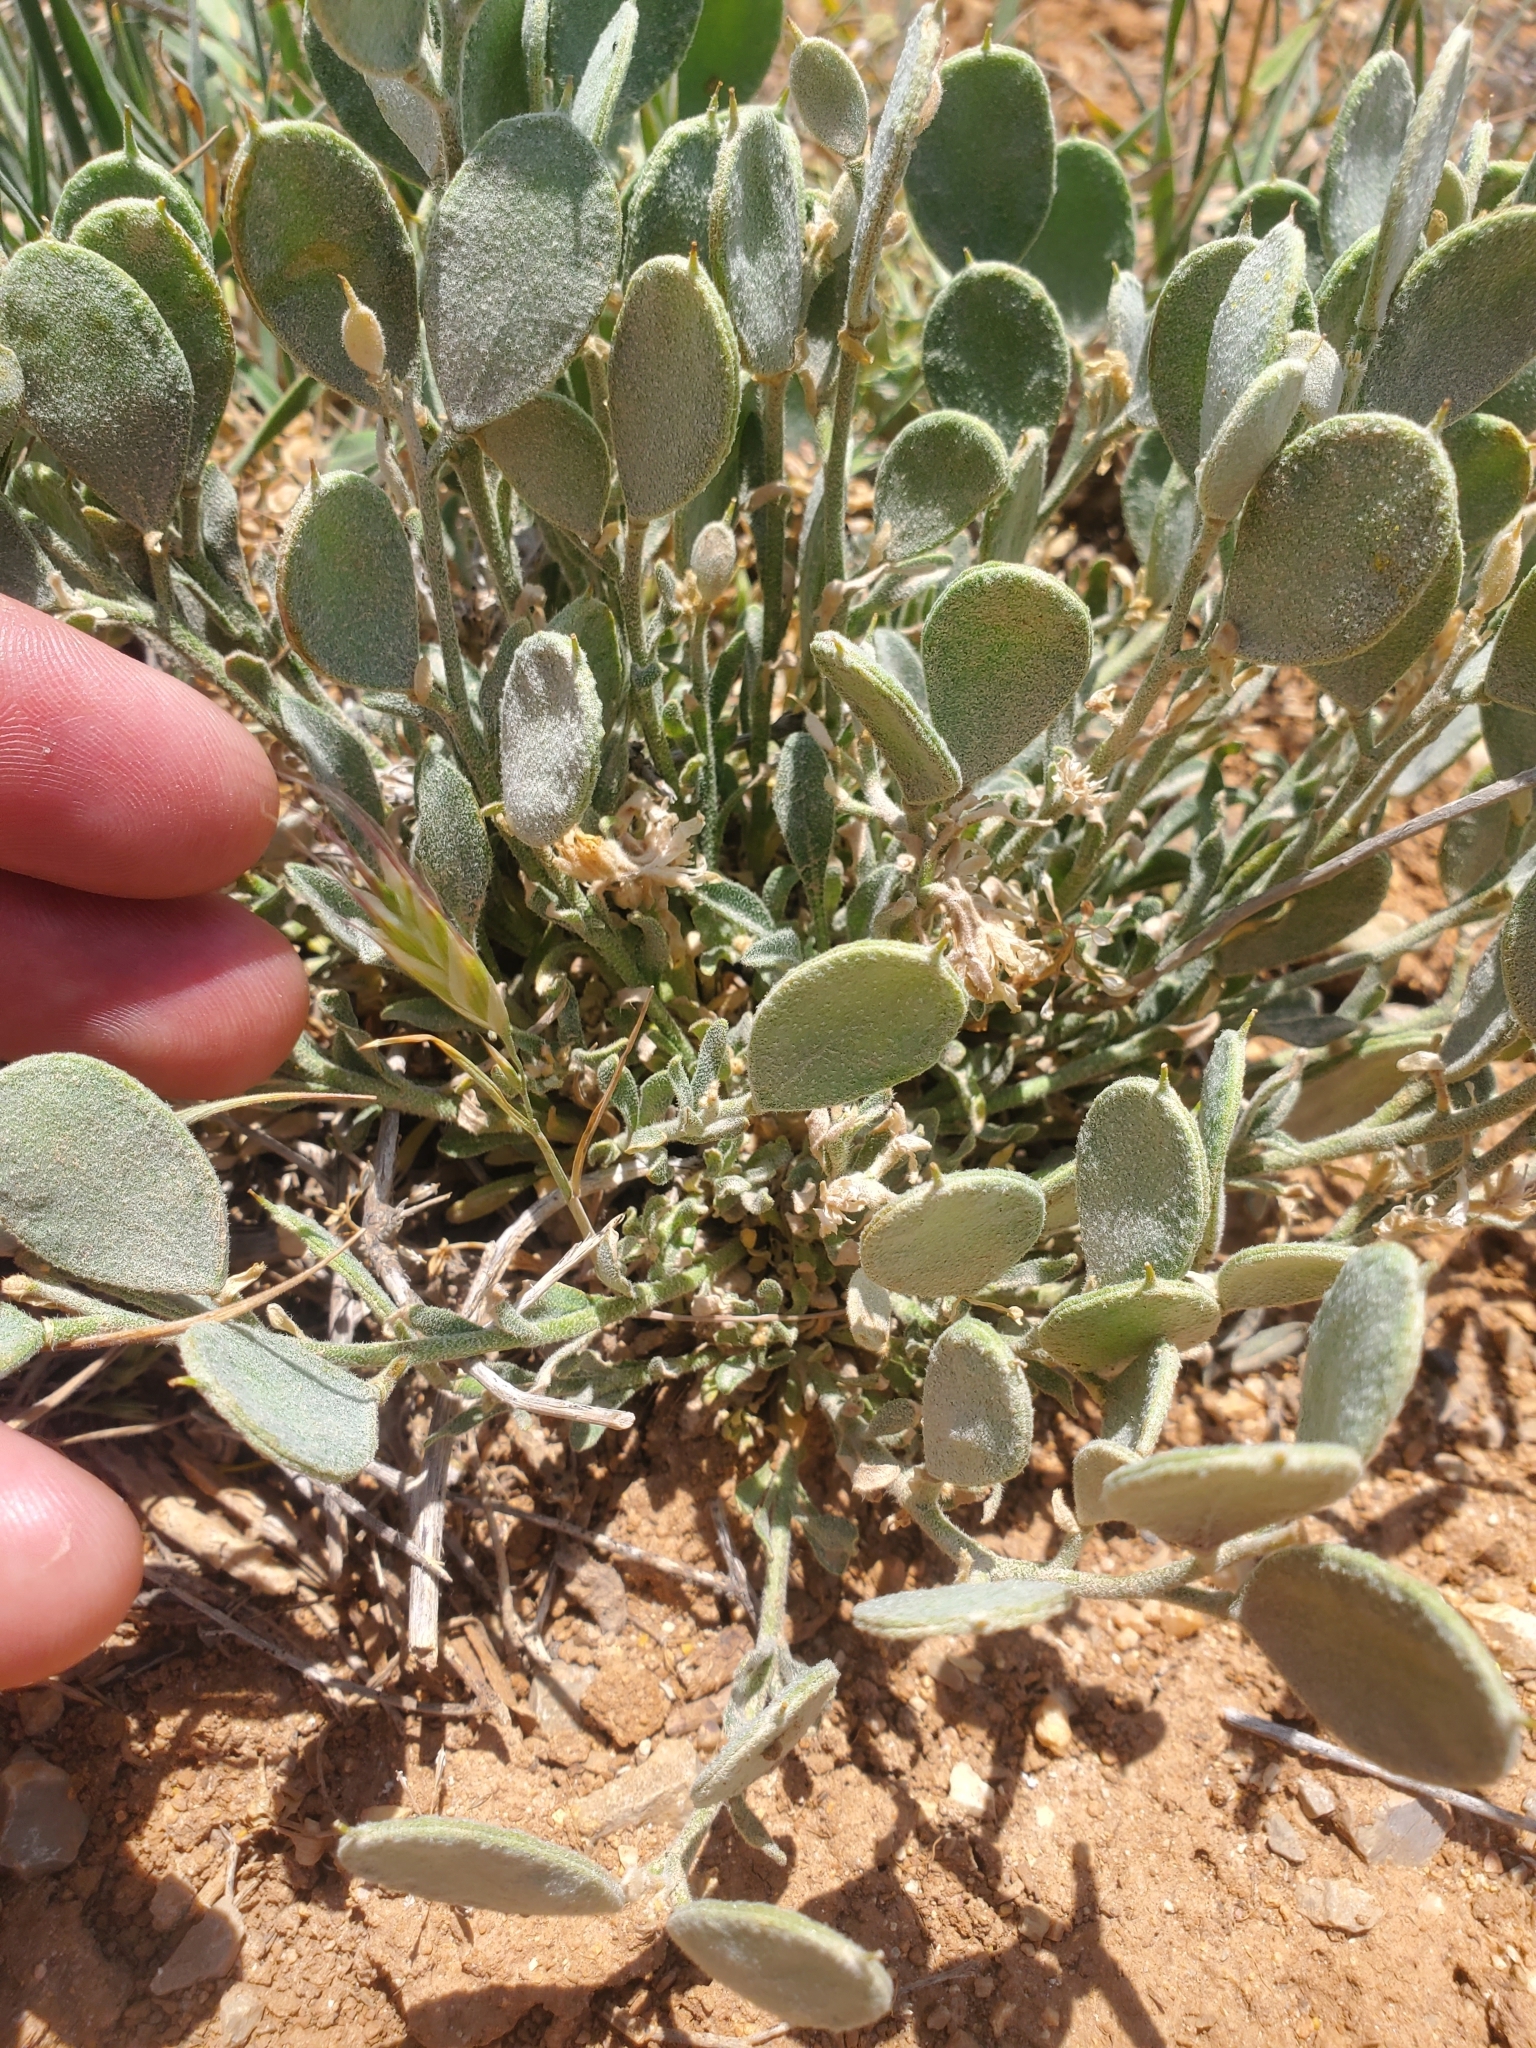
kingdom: Plantae
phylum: Tracheophyta
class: Magnoliopsida
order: Brassicales
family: Brassicaceae
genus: Fibigia
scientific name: Fibigia clypeata
